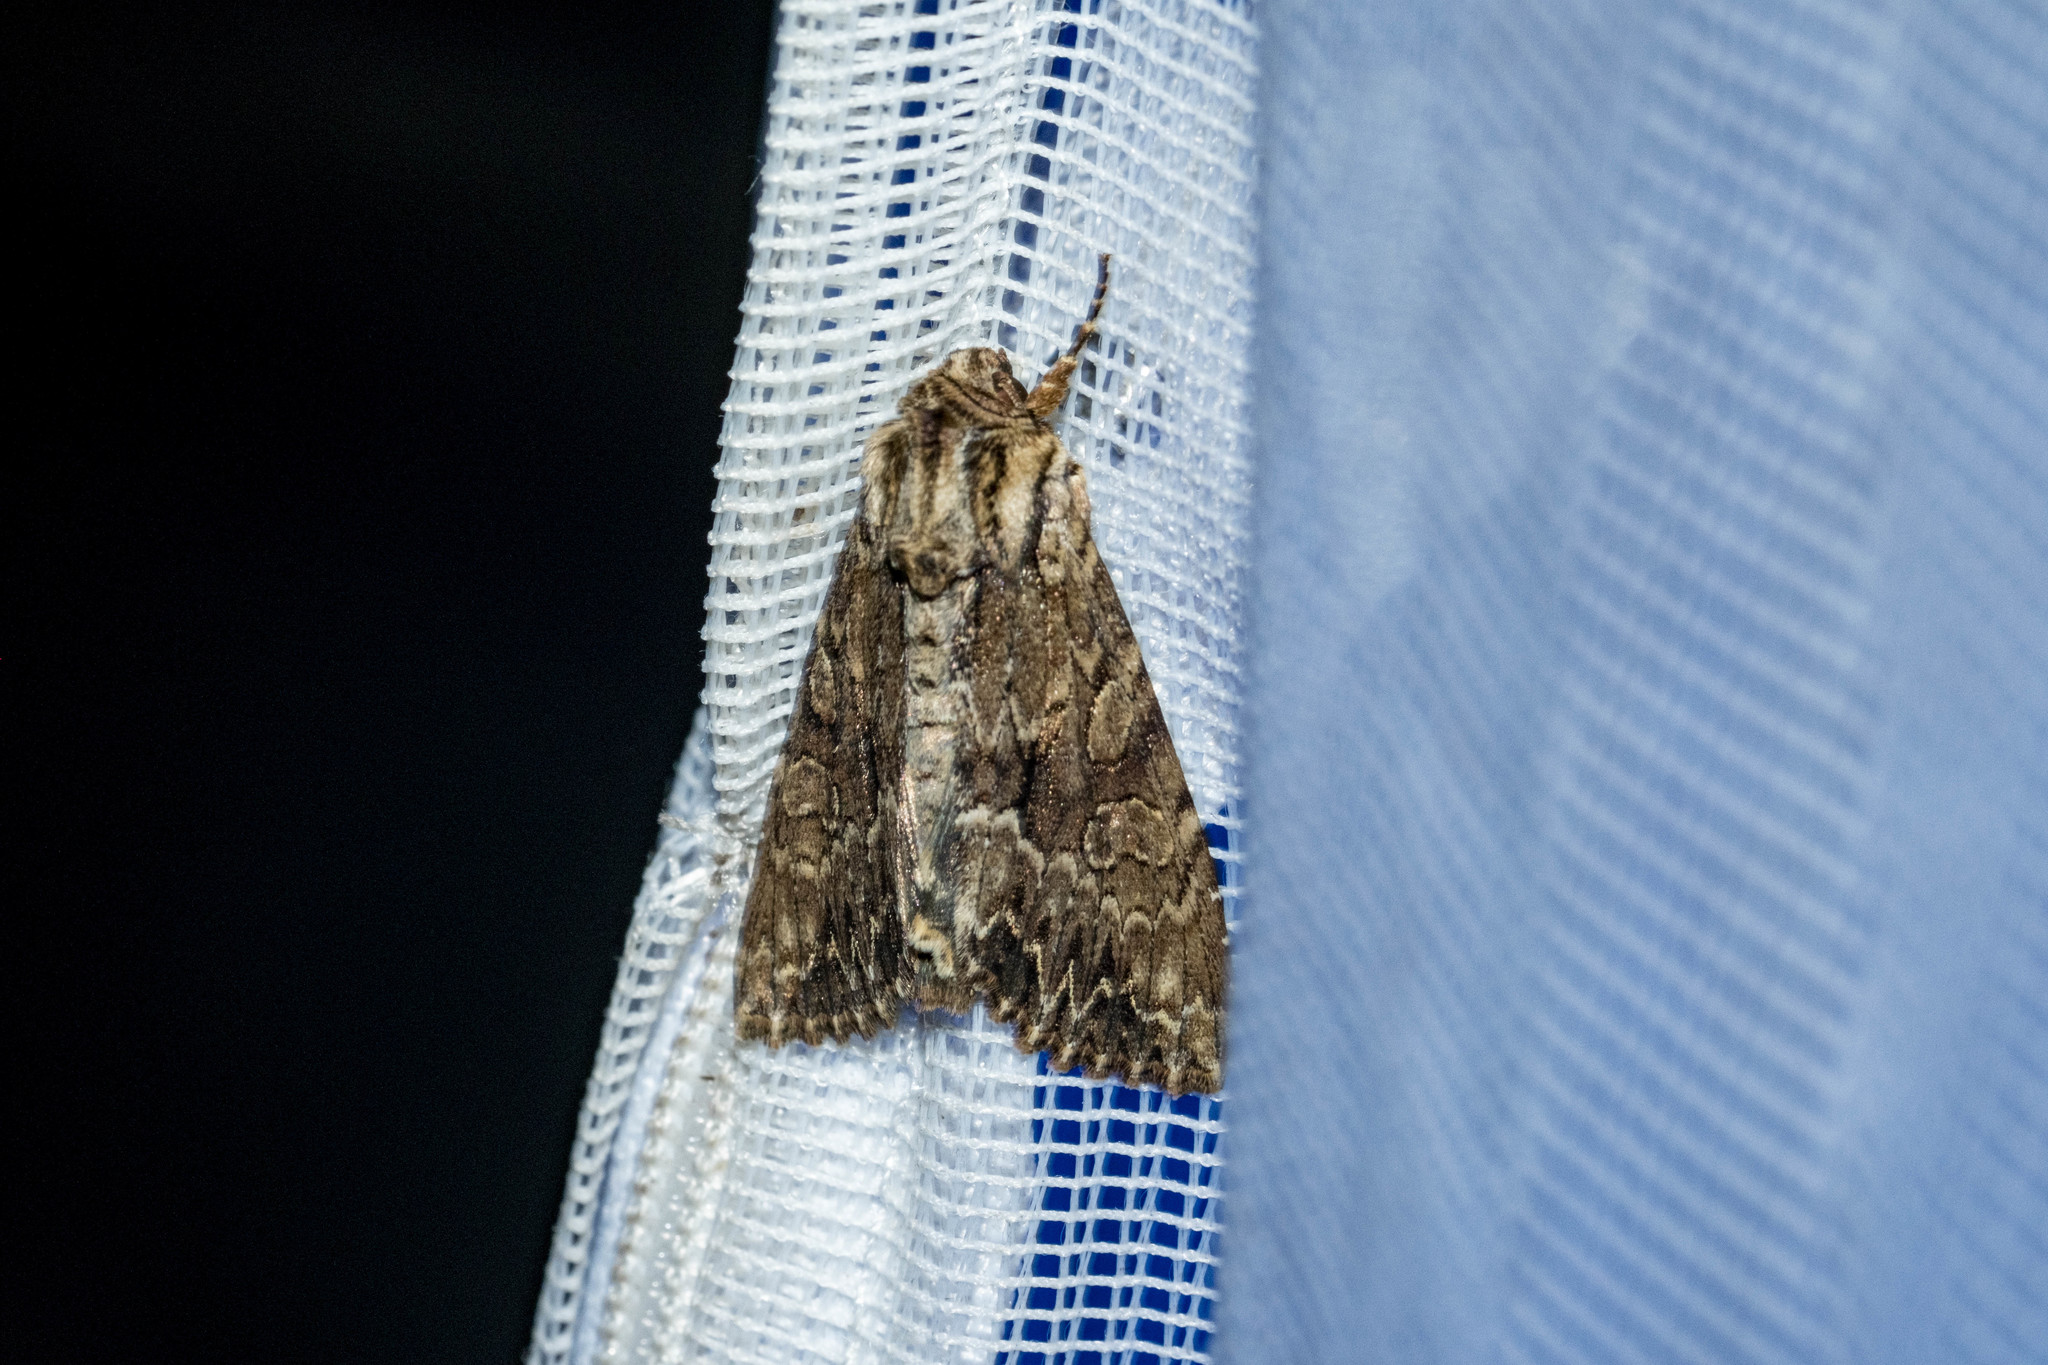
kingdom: Animalia
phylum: Arthropoda
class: Insecta
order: Lepidoptera
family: Noctuidae
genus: Apamea
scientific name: Apamea monoglypha
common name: Dark arches
